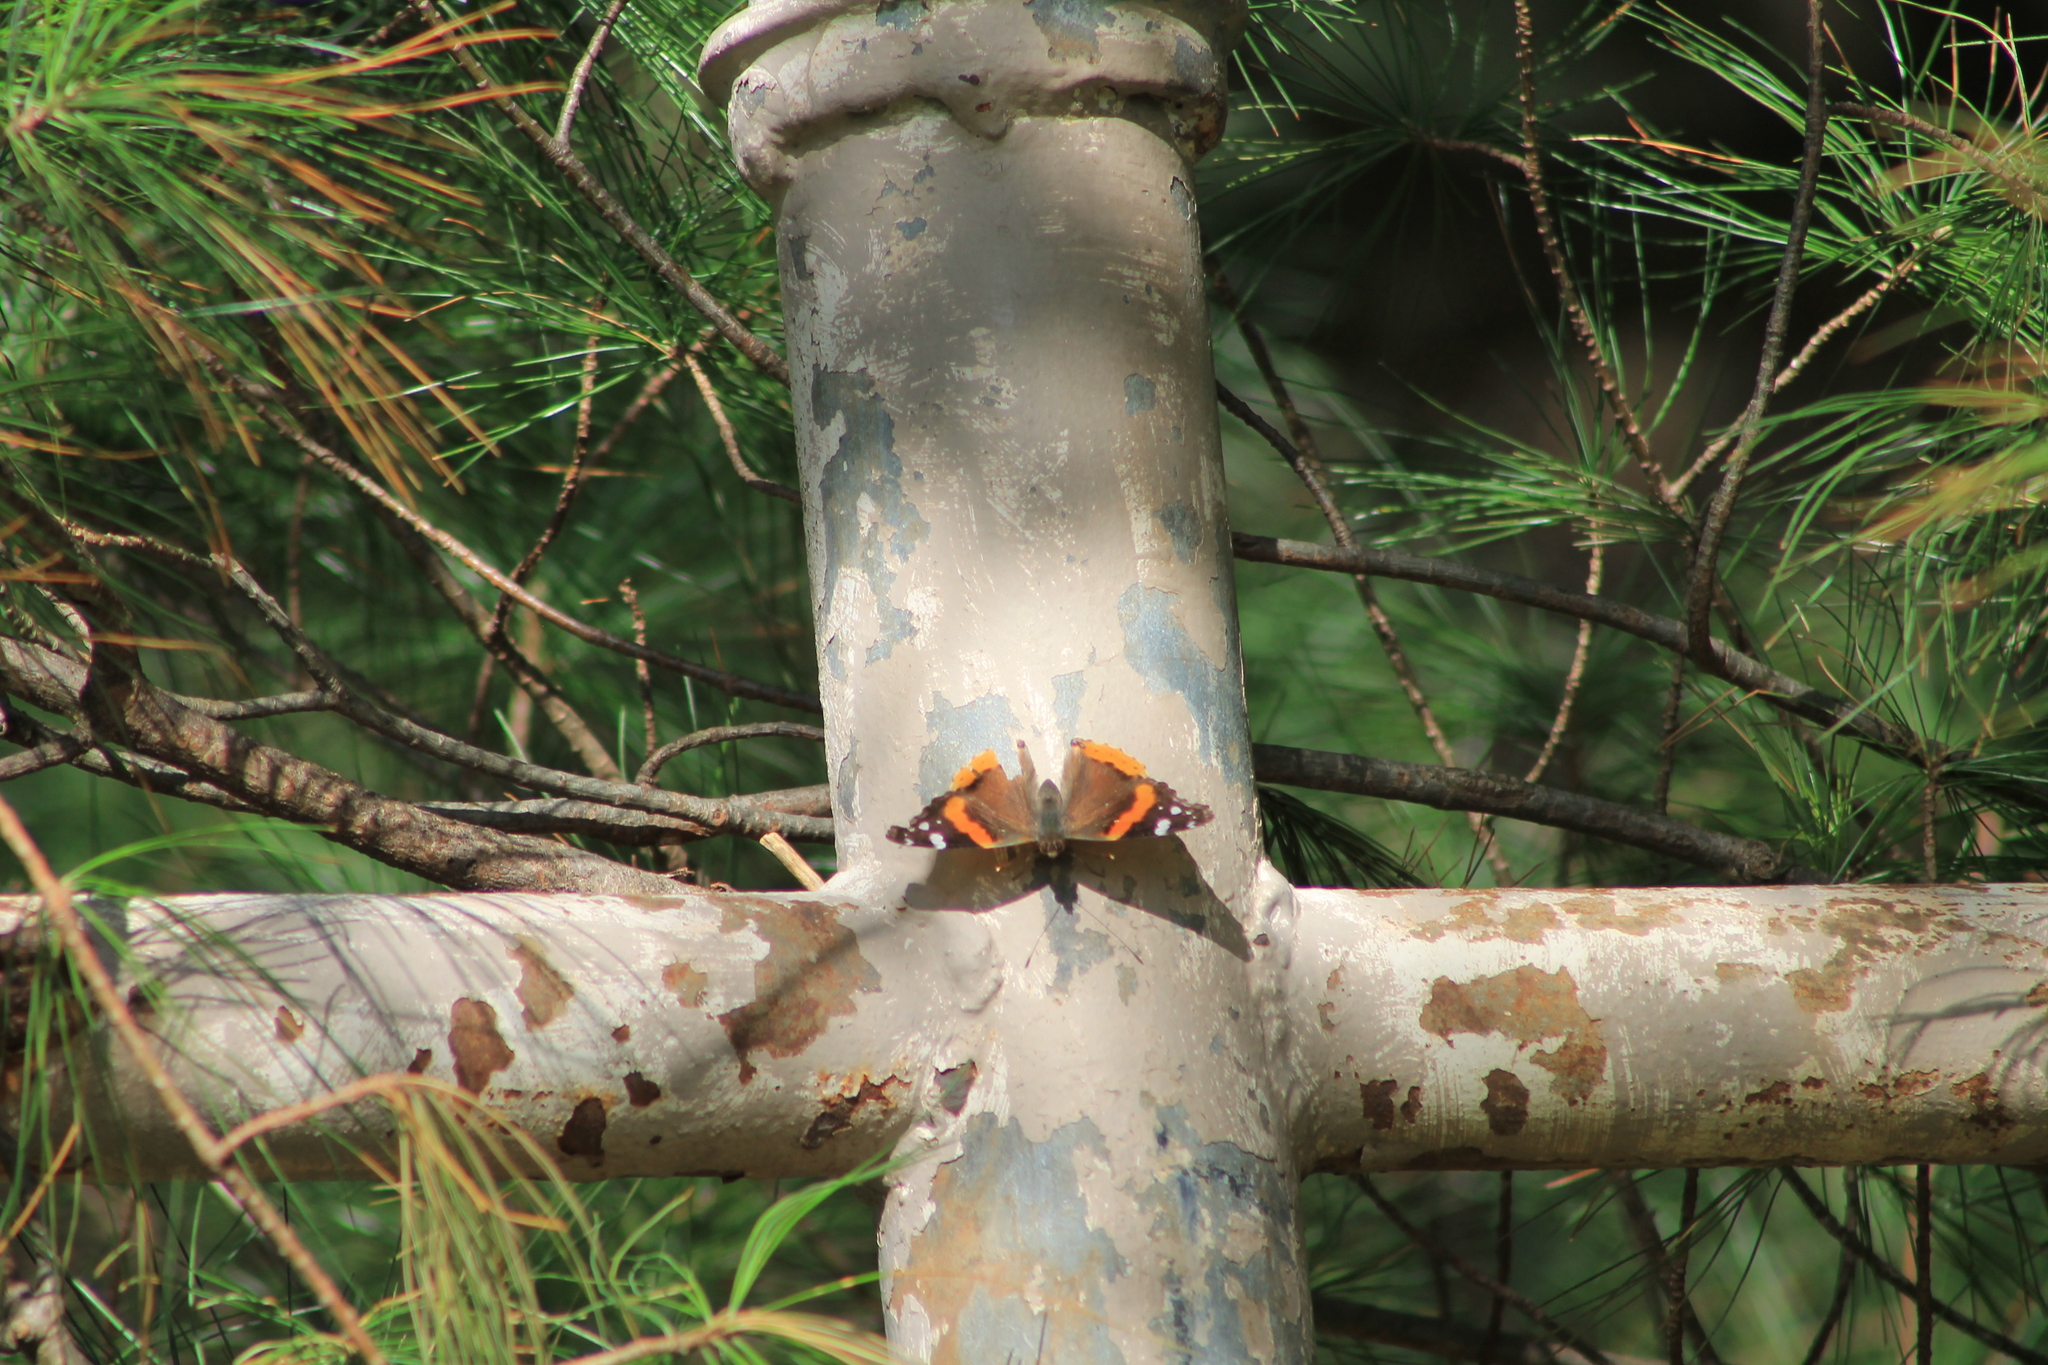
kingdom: Animalia
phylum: Arthropoda
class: Insecta
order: Lepidoptera
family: Nymphalidae
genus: Vanessa
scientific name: Vanessa atalanta
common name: Red admiral
